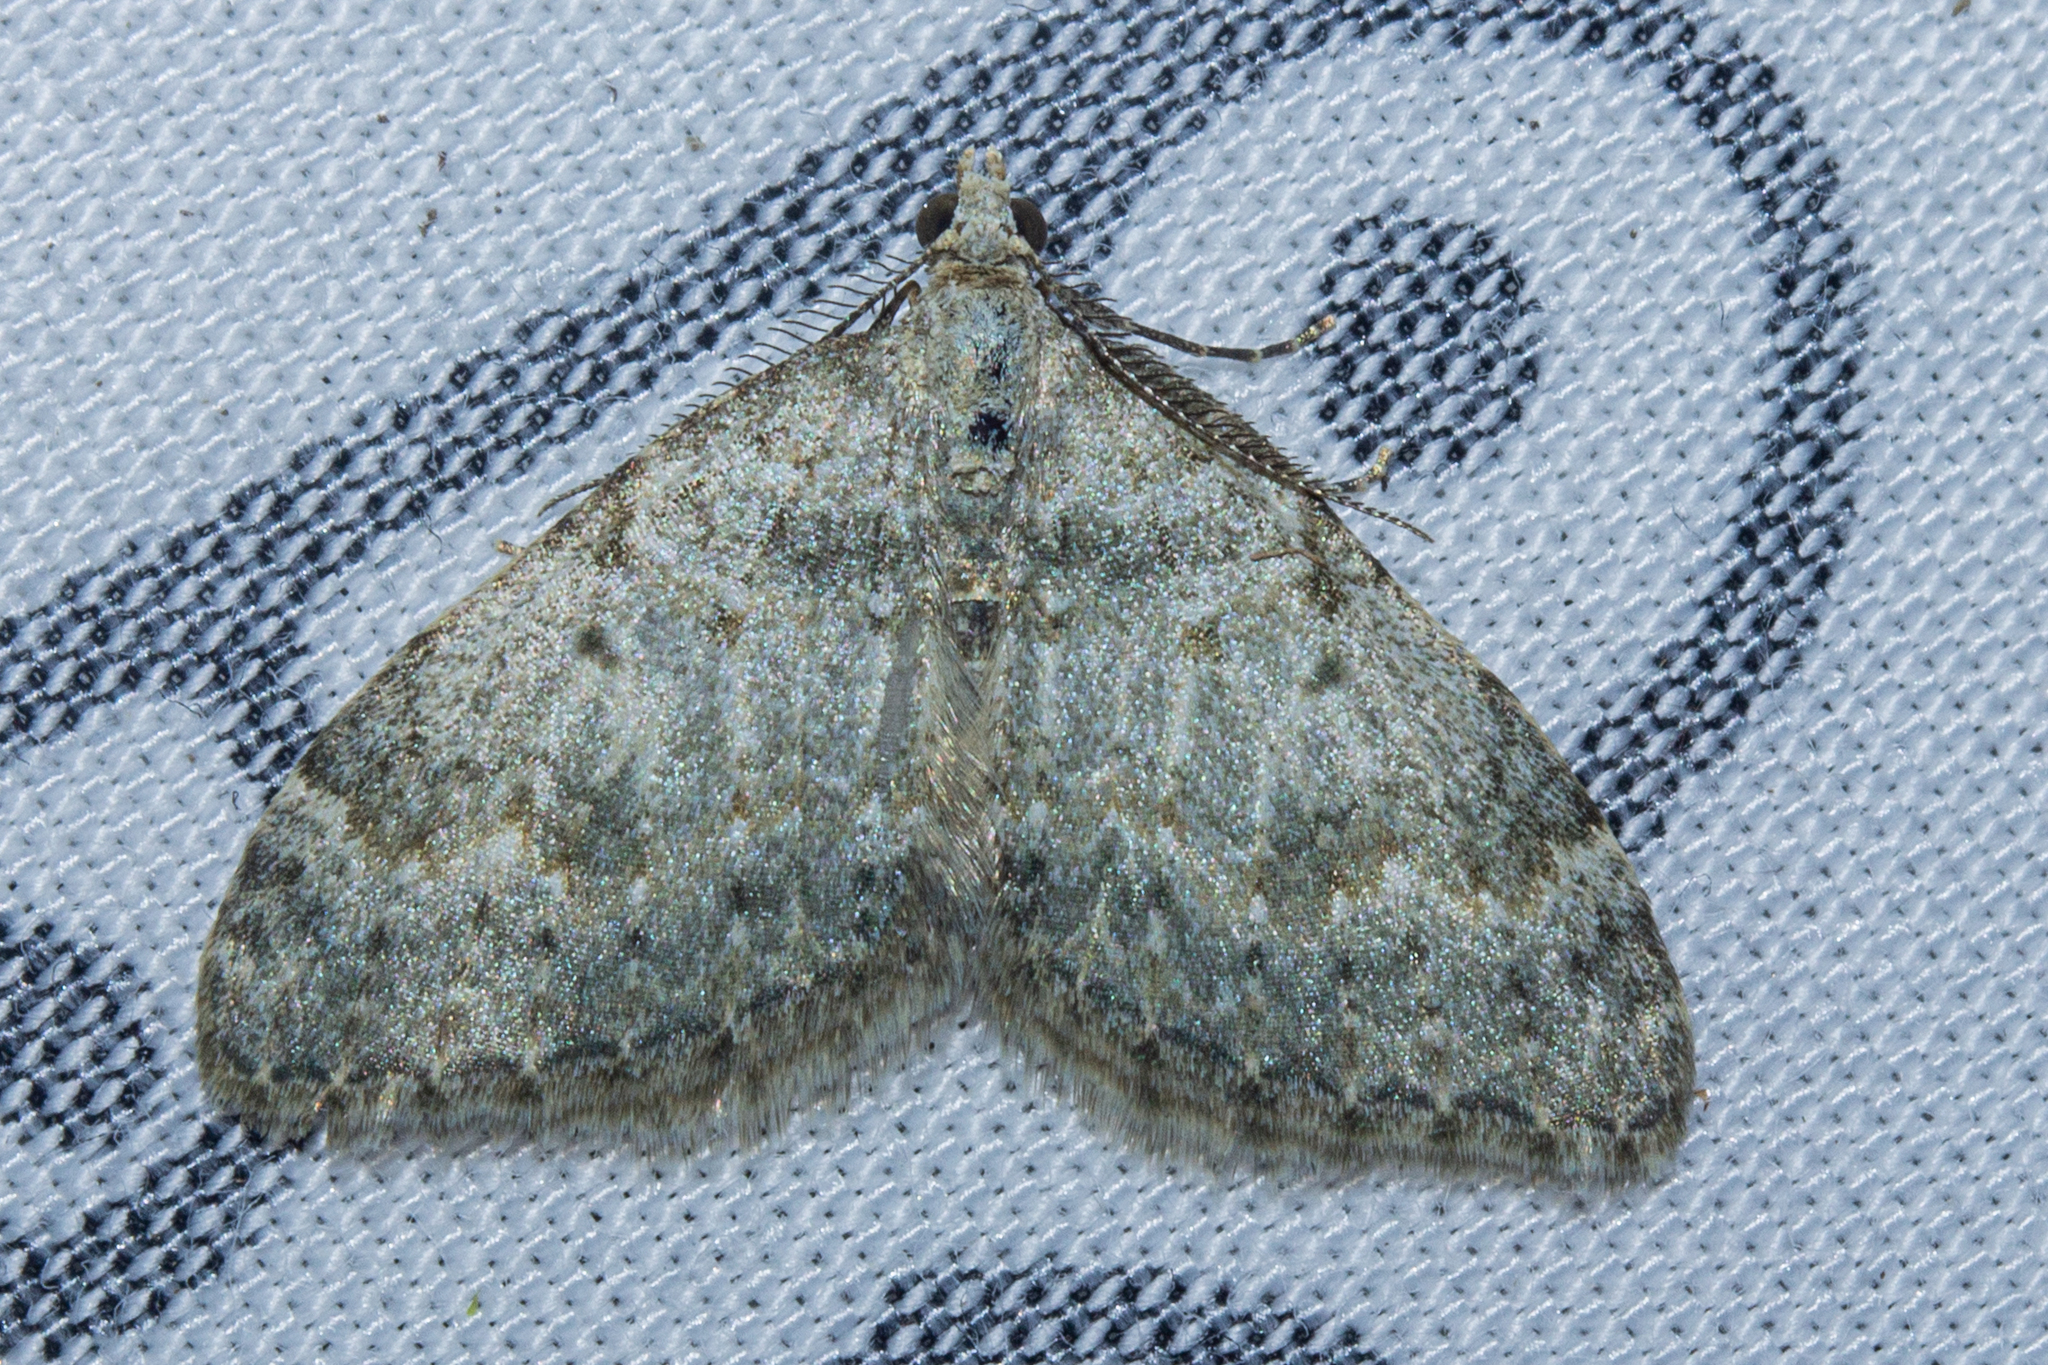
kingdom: Animalia
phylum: Arthropoda
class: Insecta
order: Lepidoptera
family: Geometridae
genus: Helastia
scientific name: Helastia christinae
